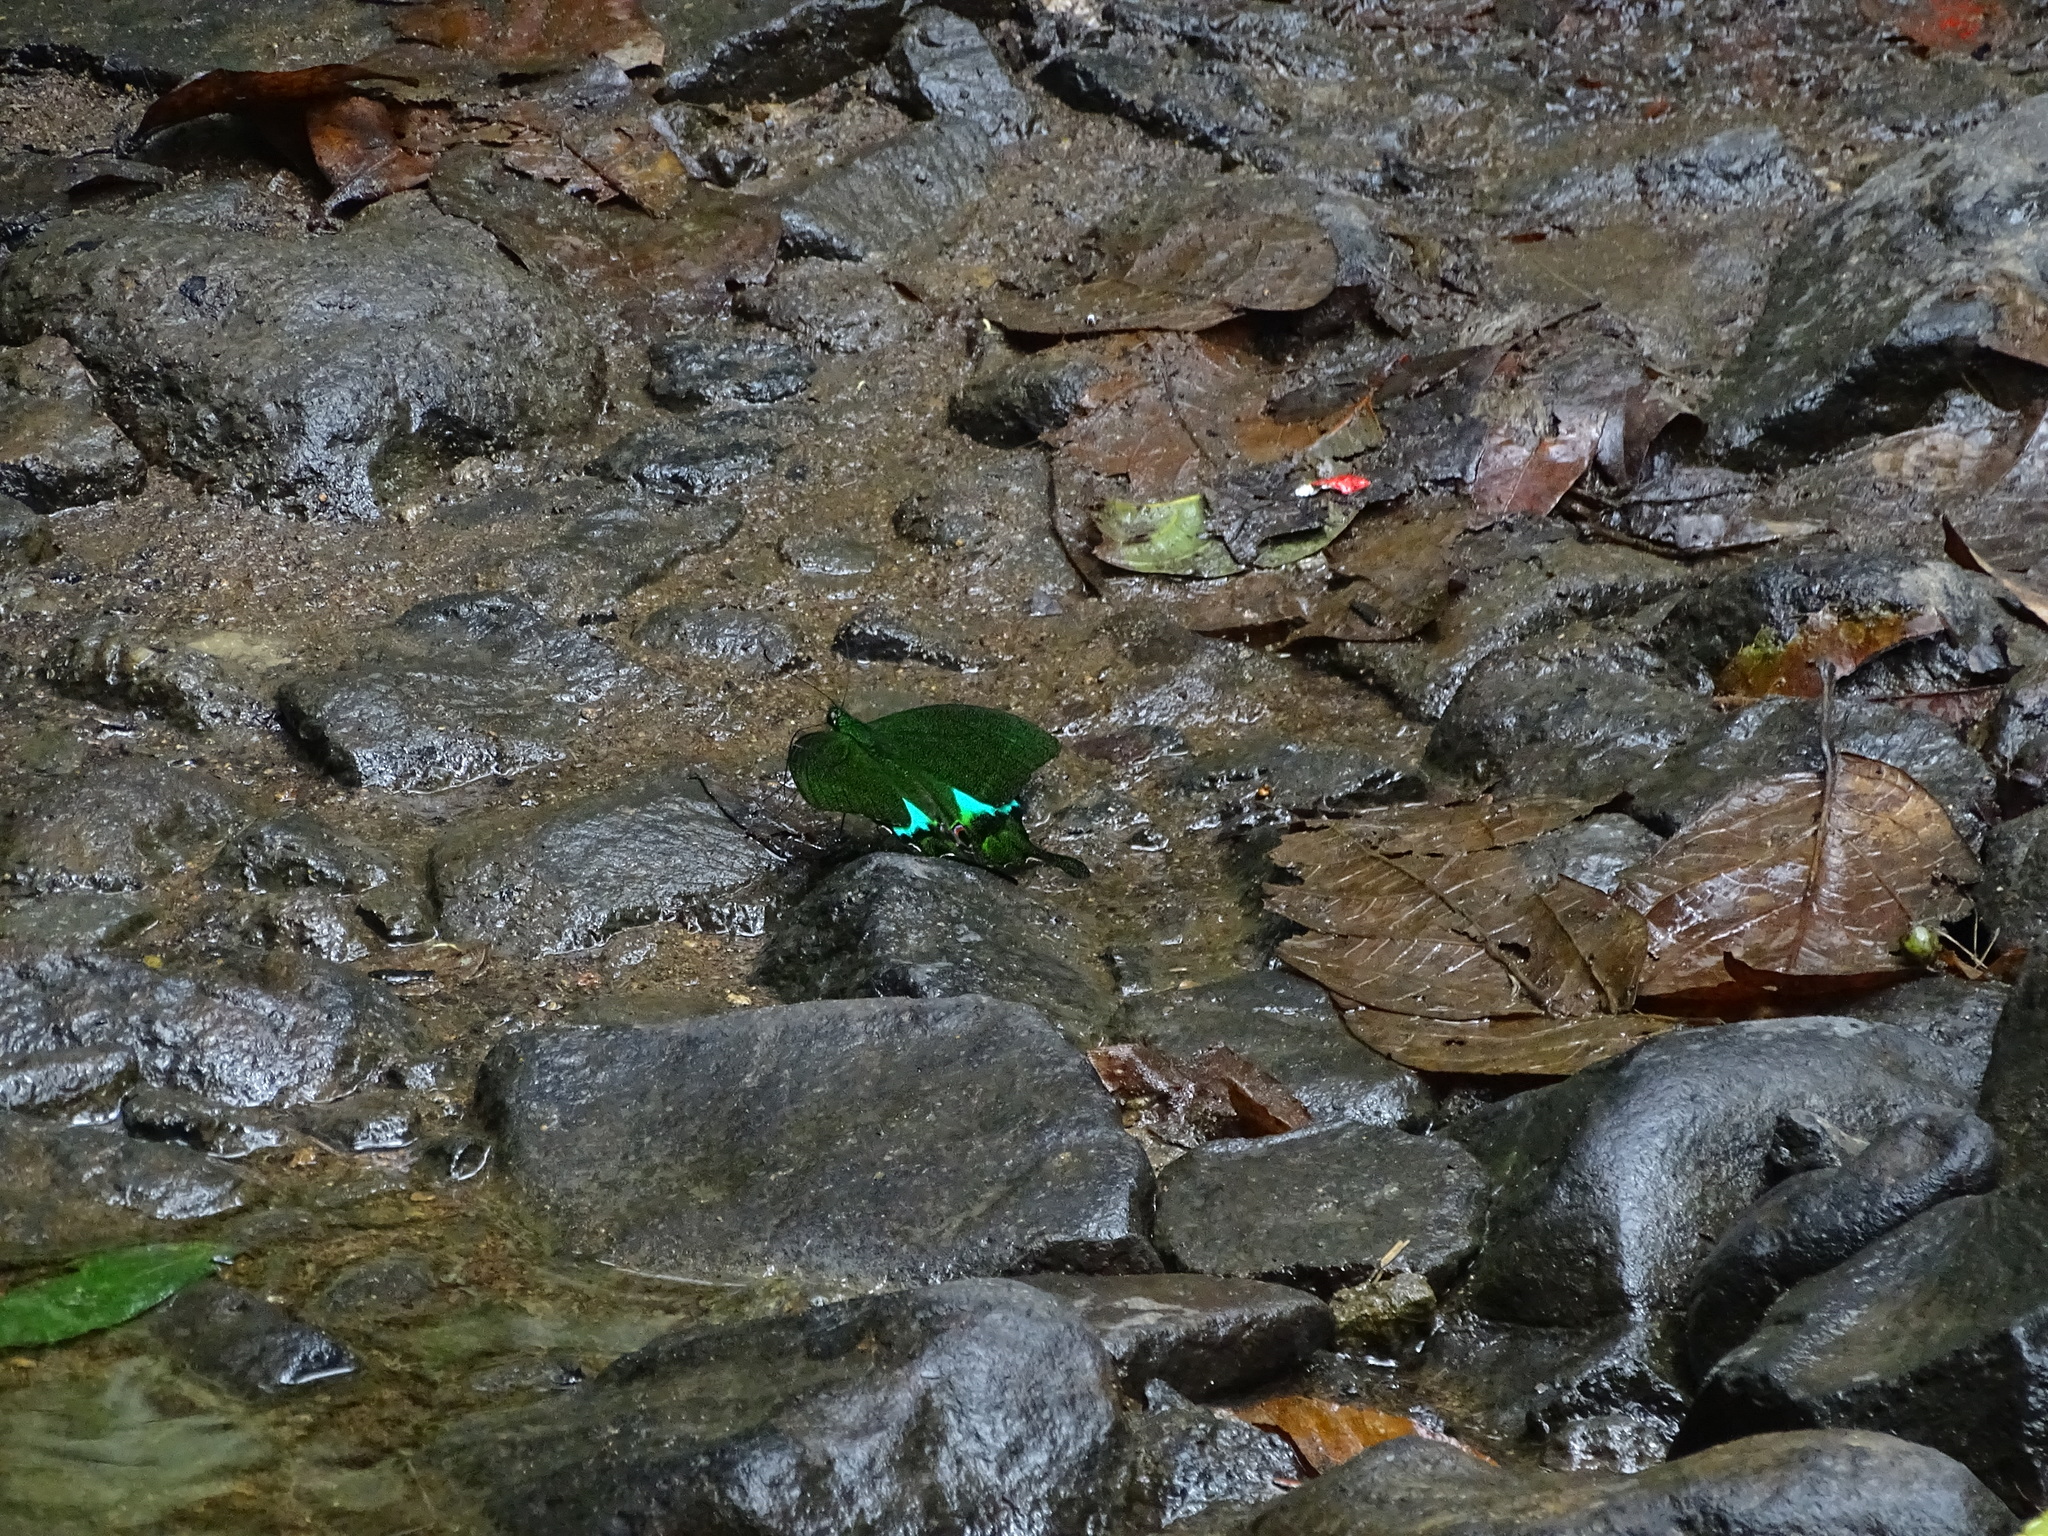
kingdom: Animalia
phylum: Arthropoda
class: Insecta
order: Lepidoptera
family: Papilionidae
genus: Papilio
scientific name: Papilio paris
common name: Paris peacock
